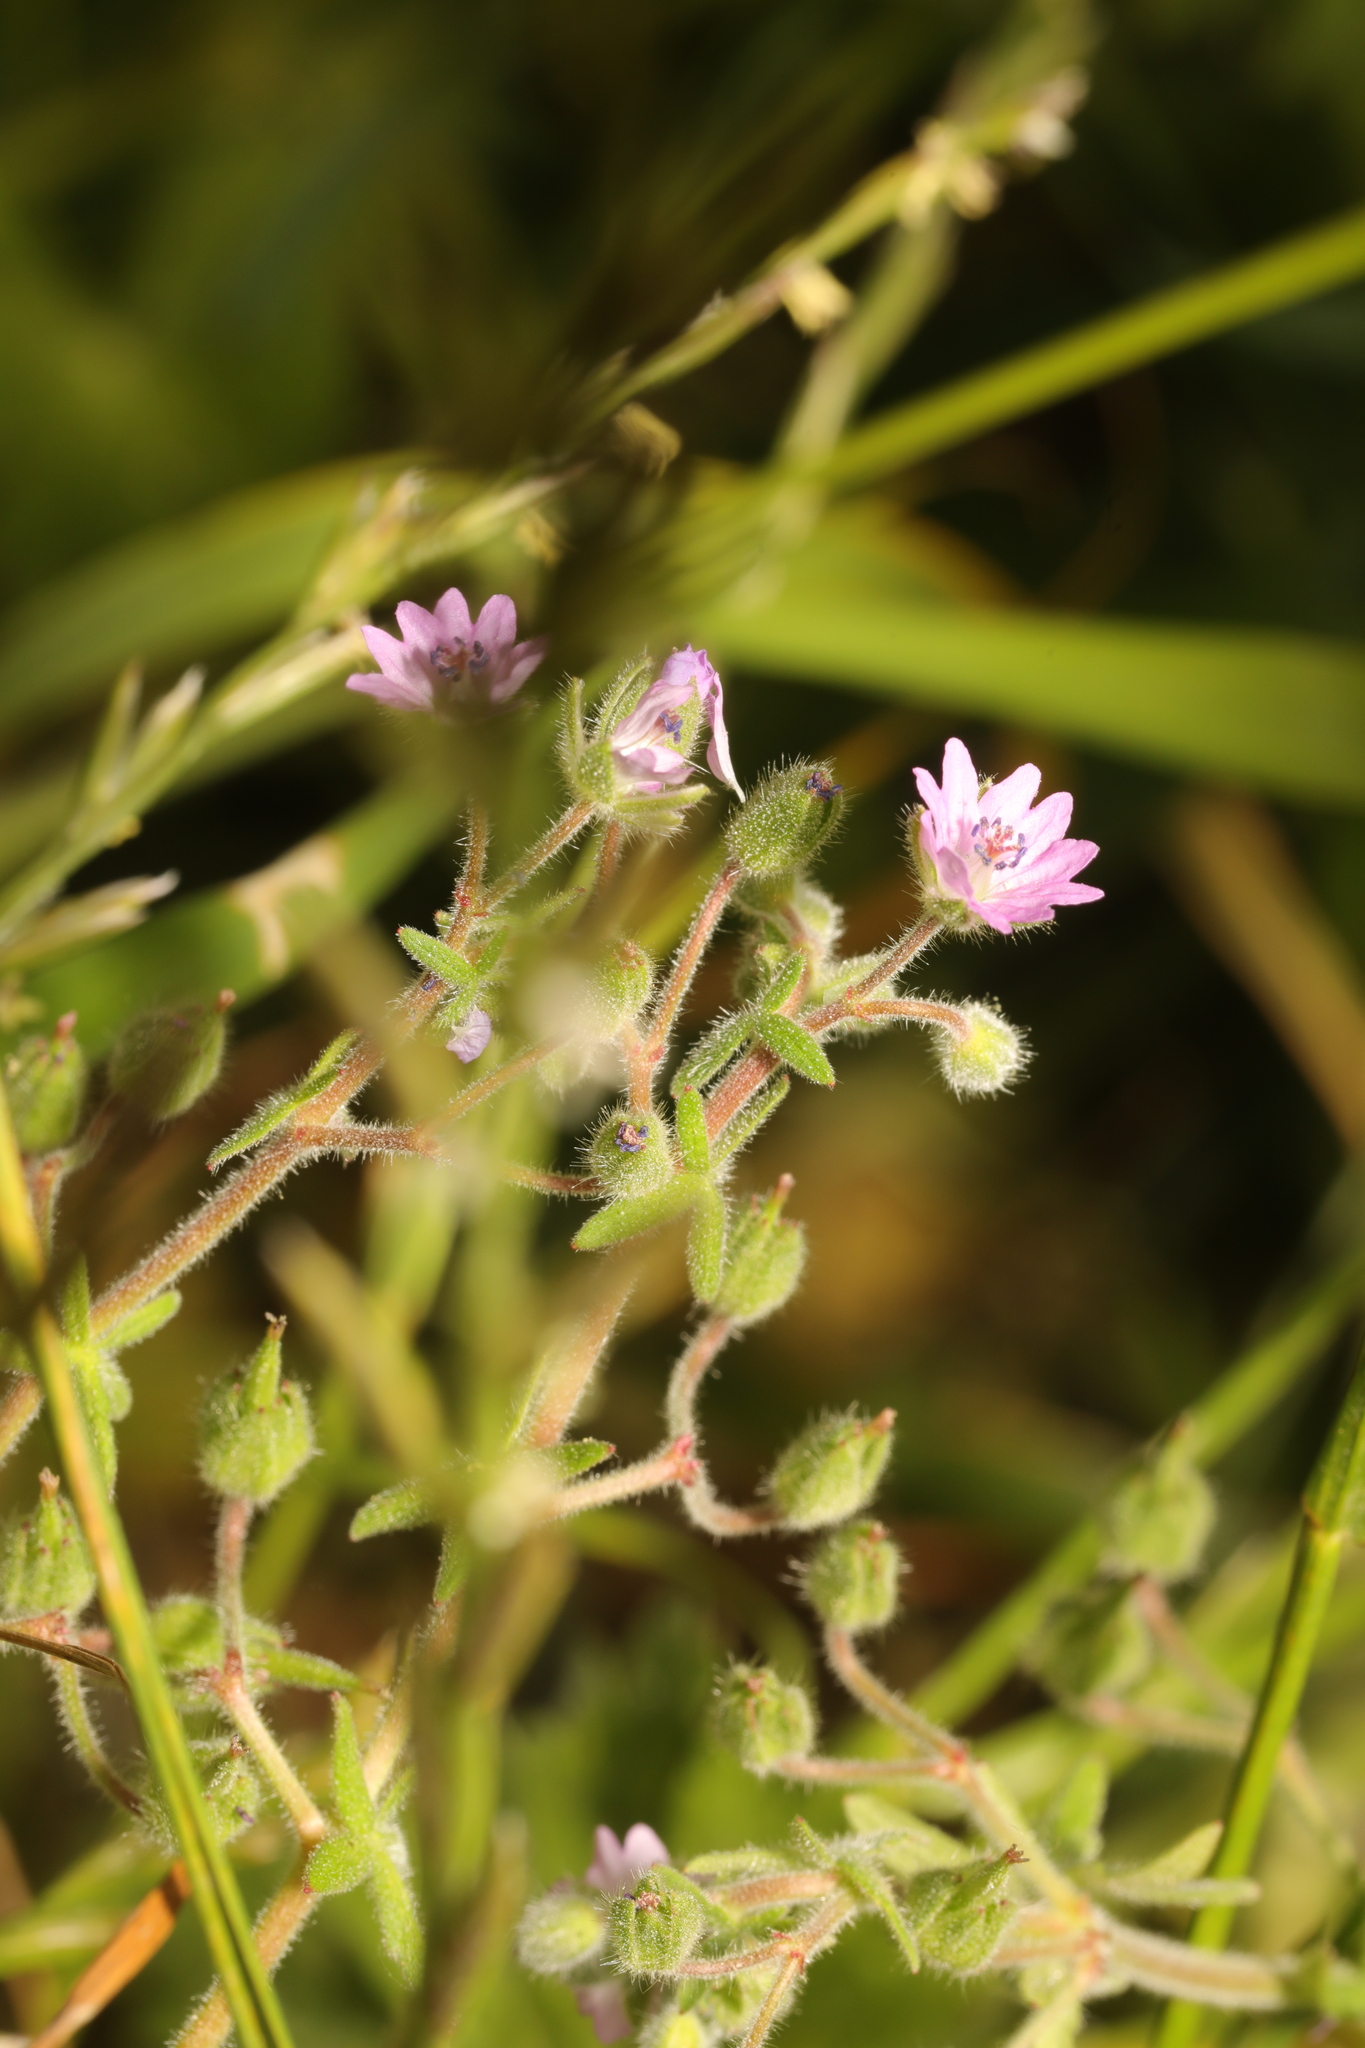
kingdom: Plantae
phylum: Tracheophyta
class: Magnoliopsida
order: Geraniales
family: Geraniaceae
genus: Geranium
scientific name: Geranium molle
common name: Dove's-foot crane's-bill
